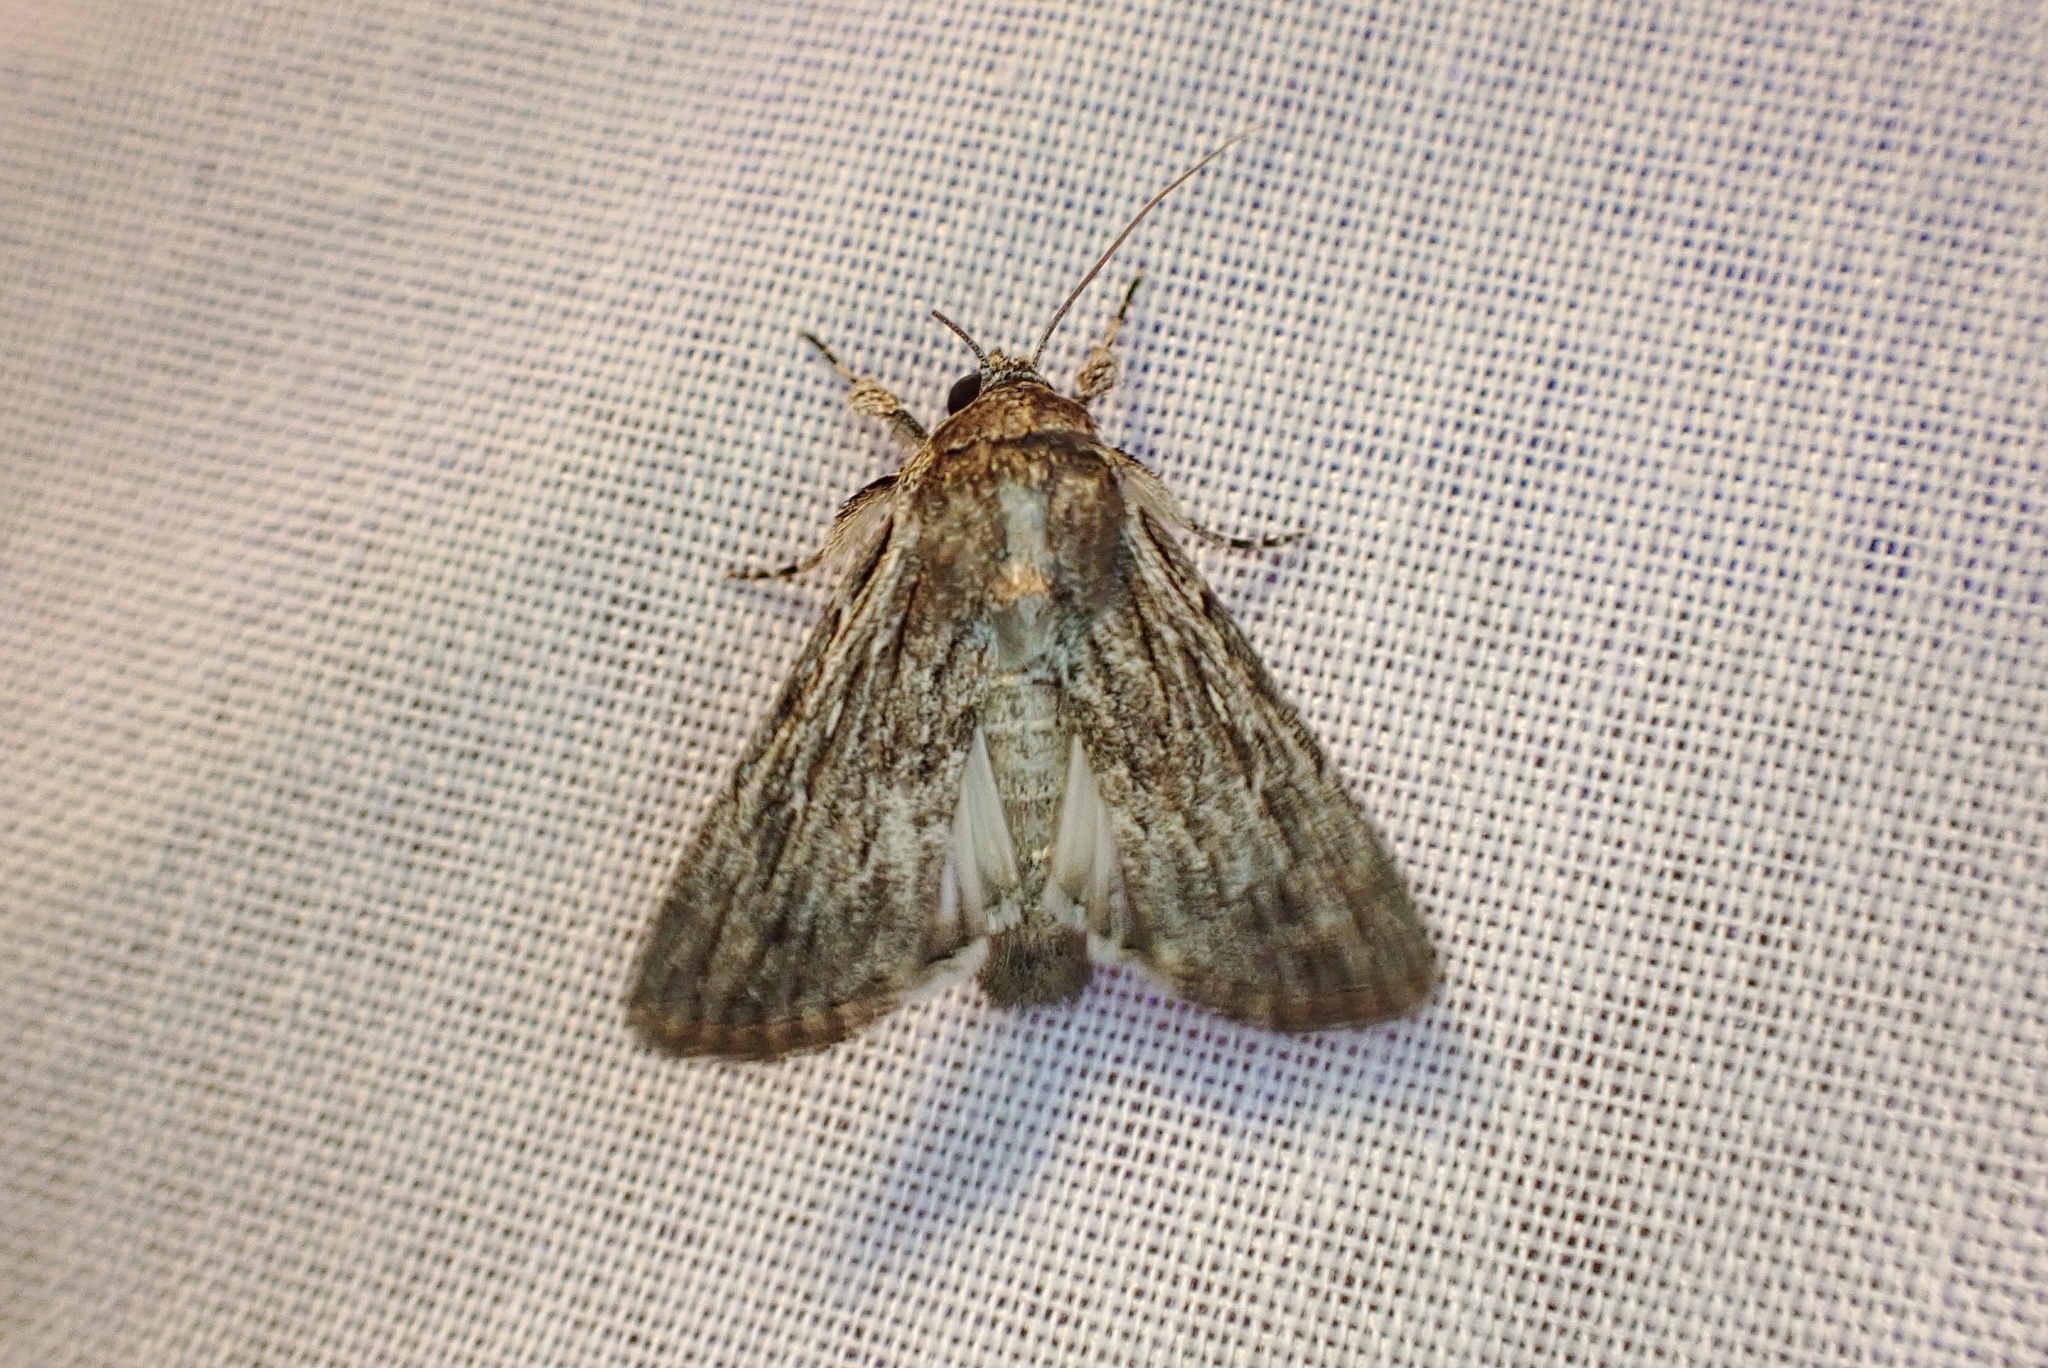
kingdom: Animalia
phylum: Arthropoda
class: Insecta
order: Lepidoptera
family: Noctuidae
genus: Neogalea
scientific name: Neogalea sunia
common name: Lantana stick caterpillar
